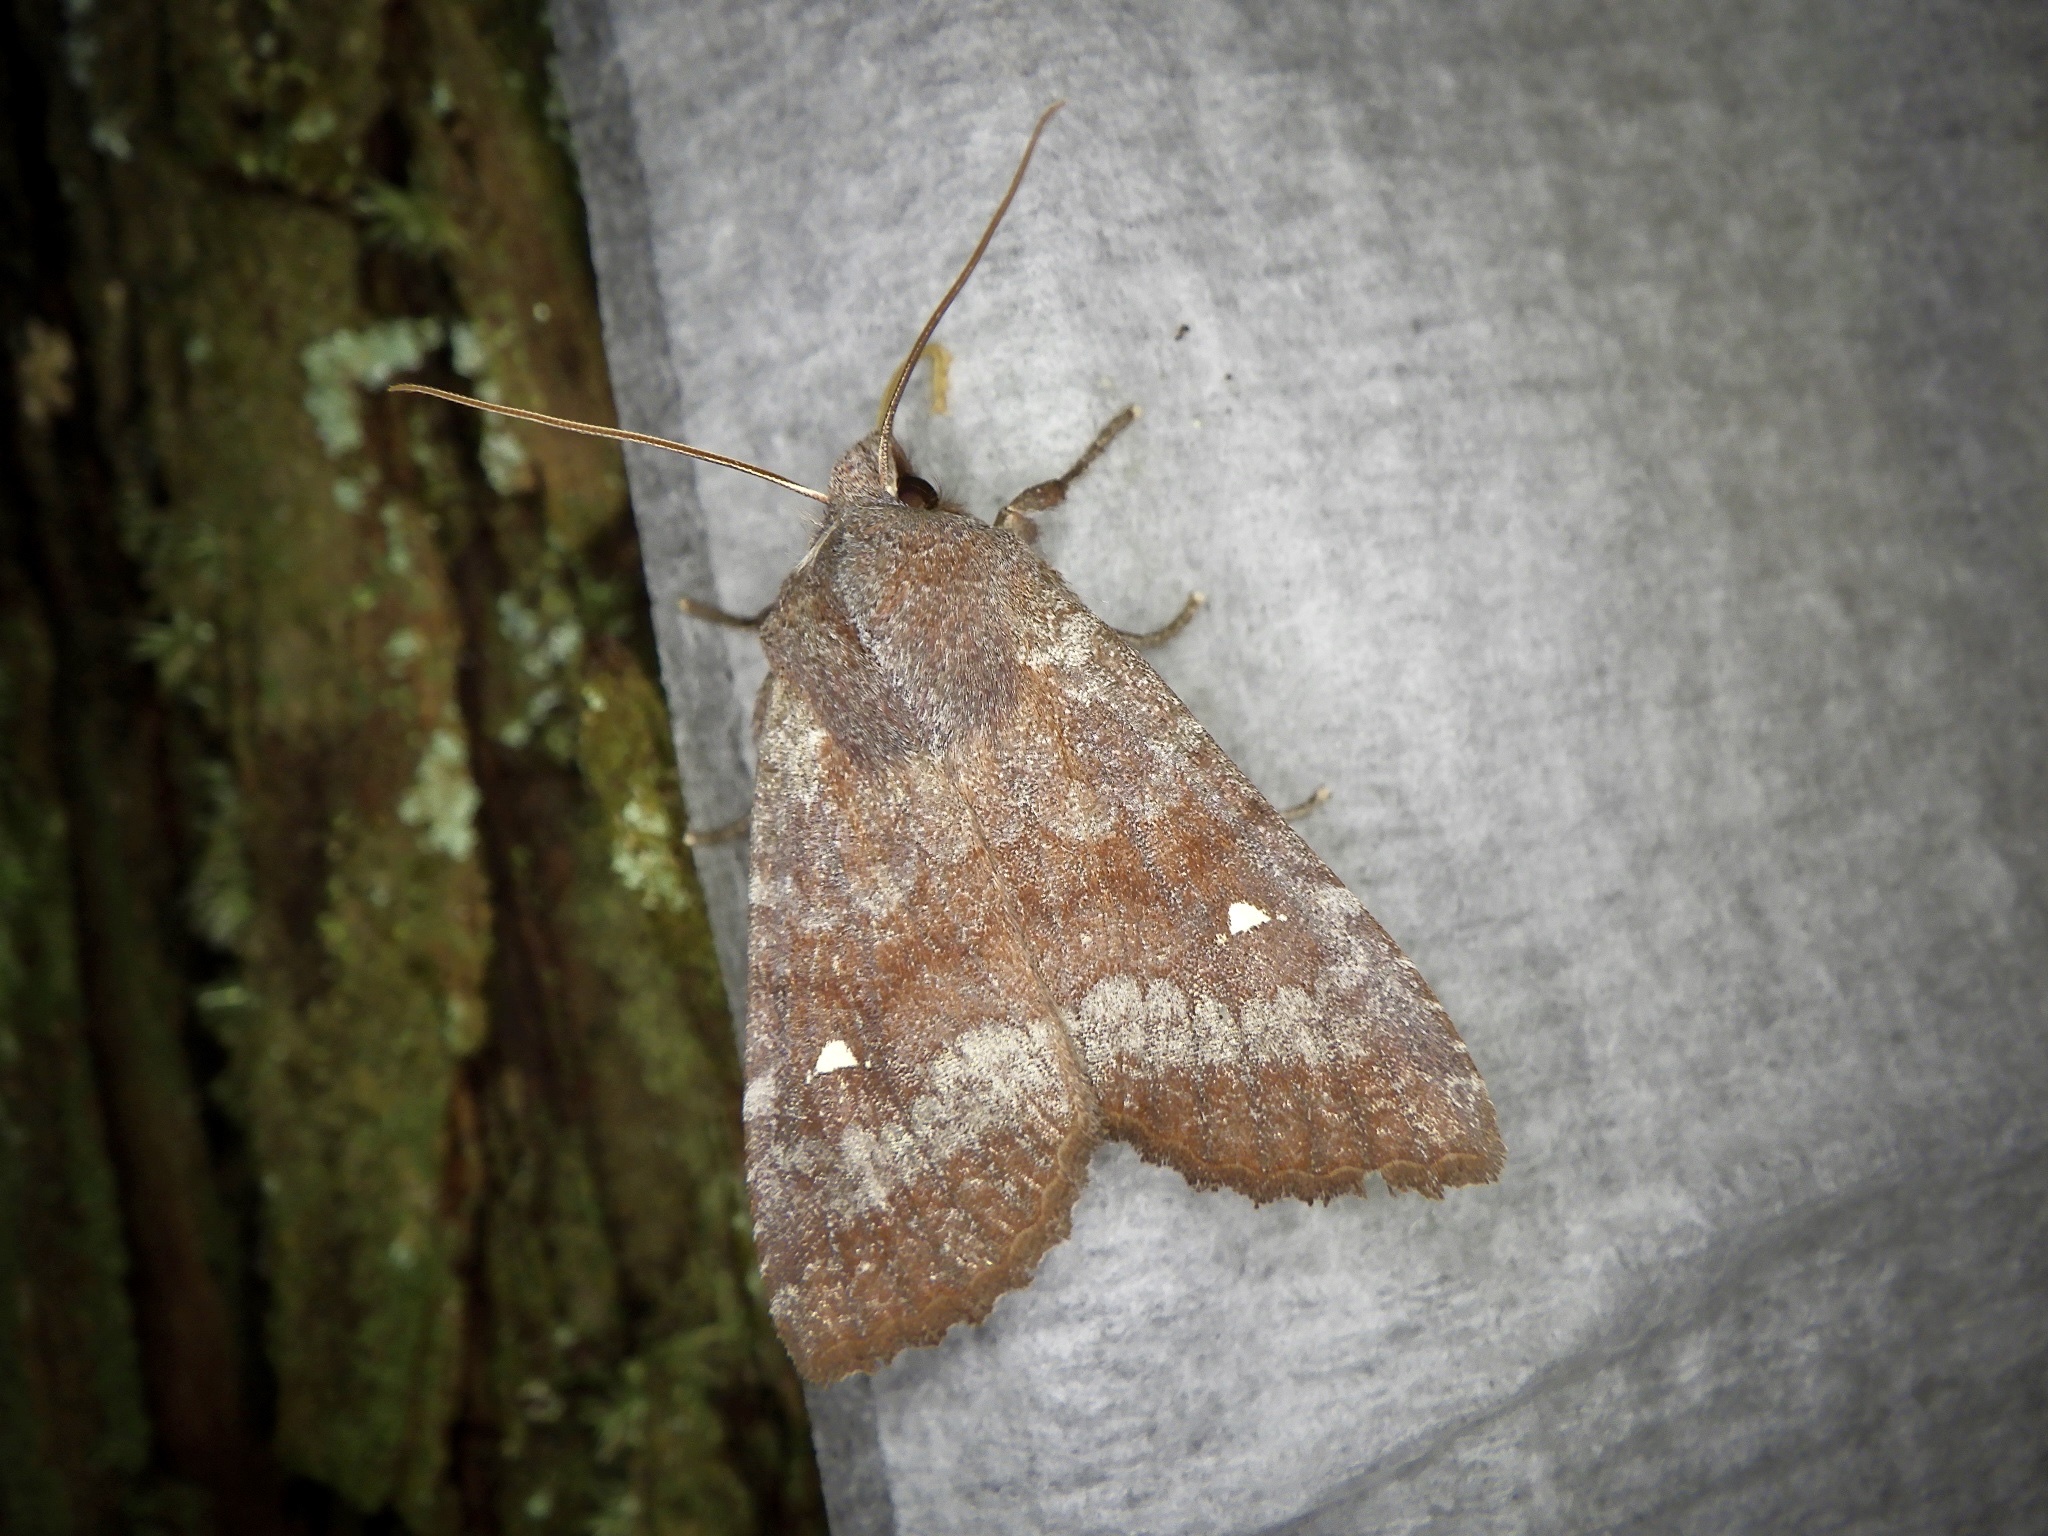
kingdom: Animalia
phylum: Arthropoda
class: Insecta
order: Lepidoptera
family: Noctuidae
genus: Eupsilia
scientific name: Eupsilia unipuncta
